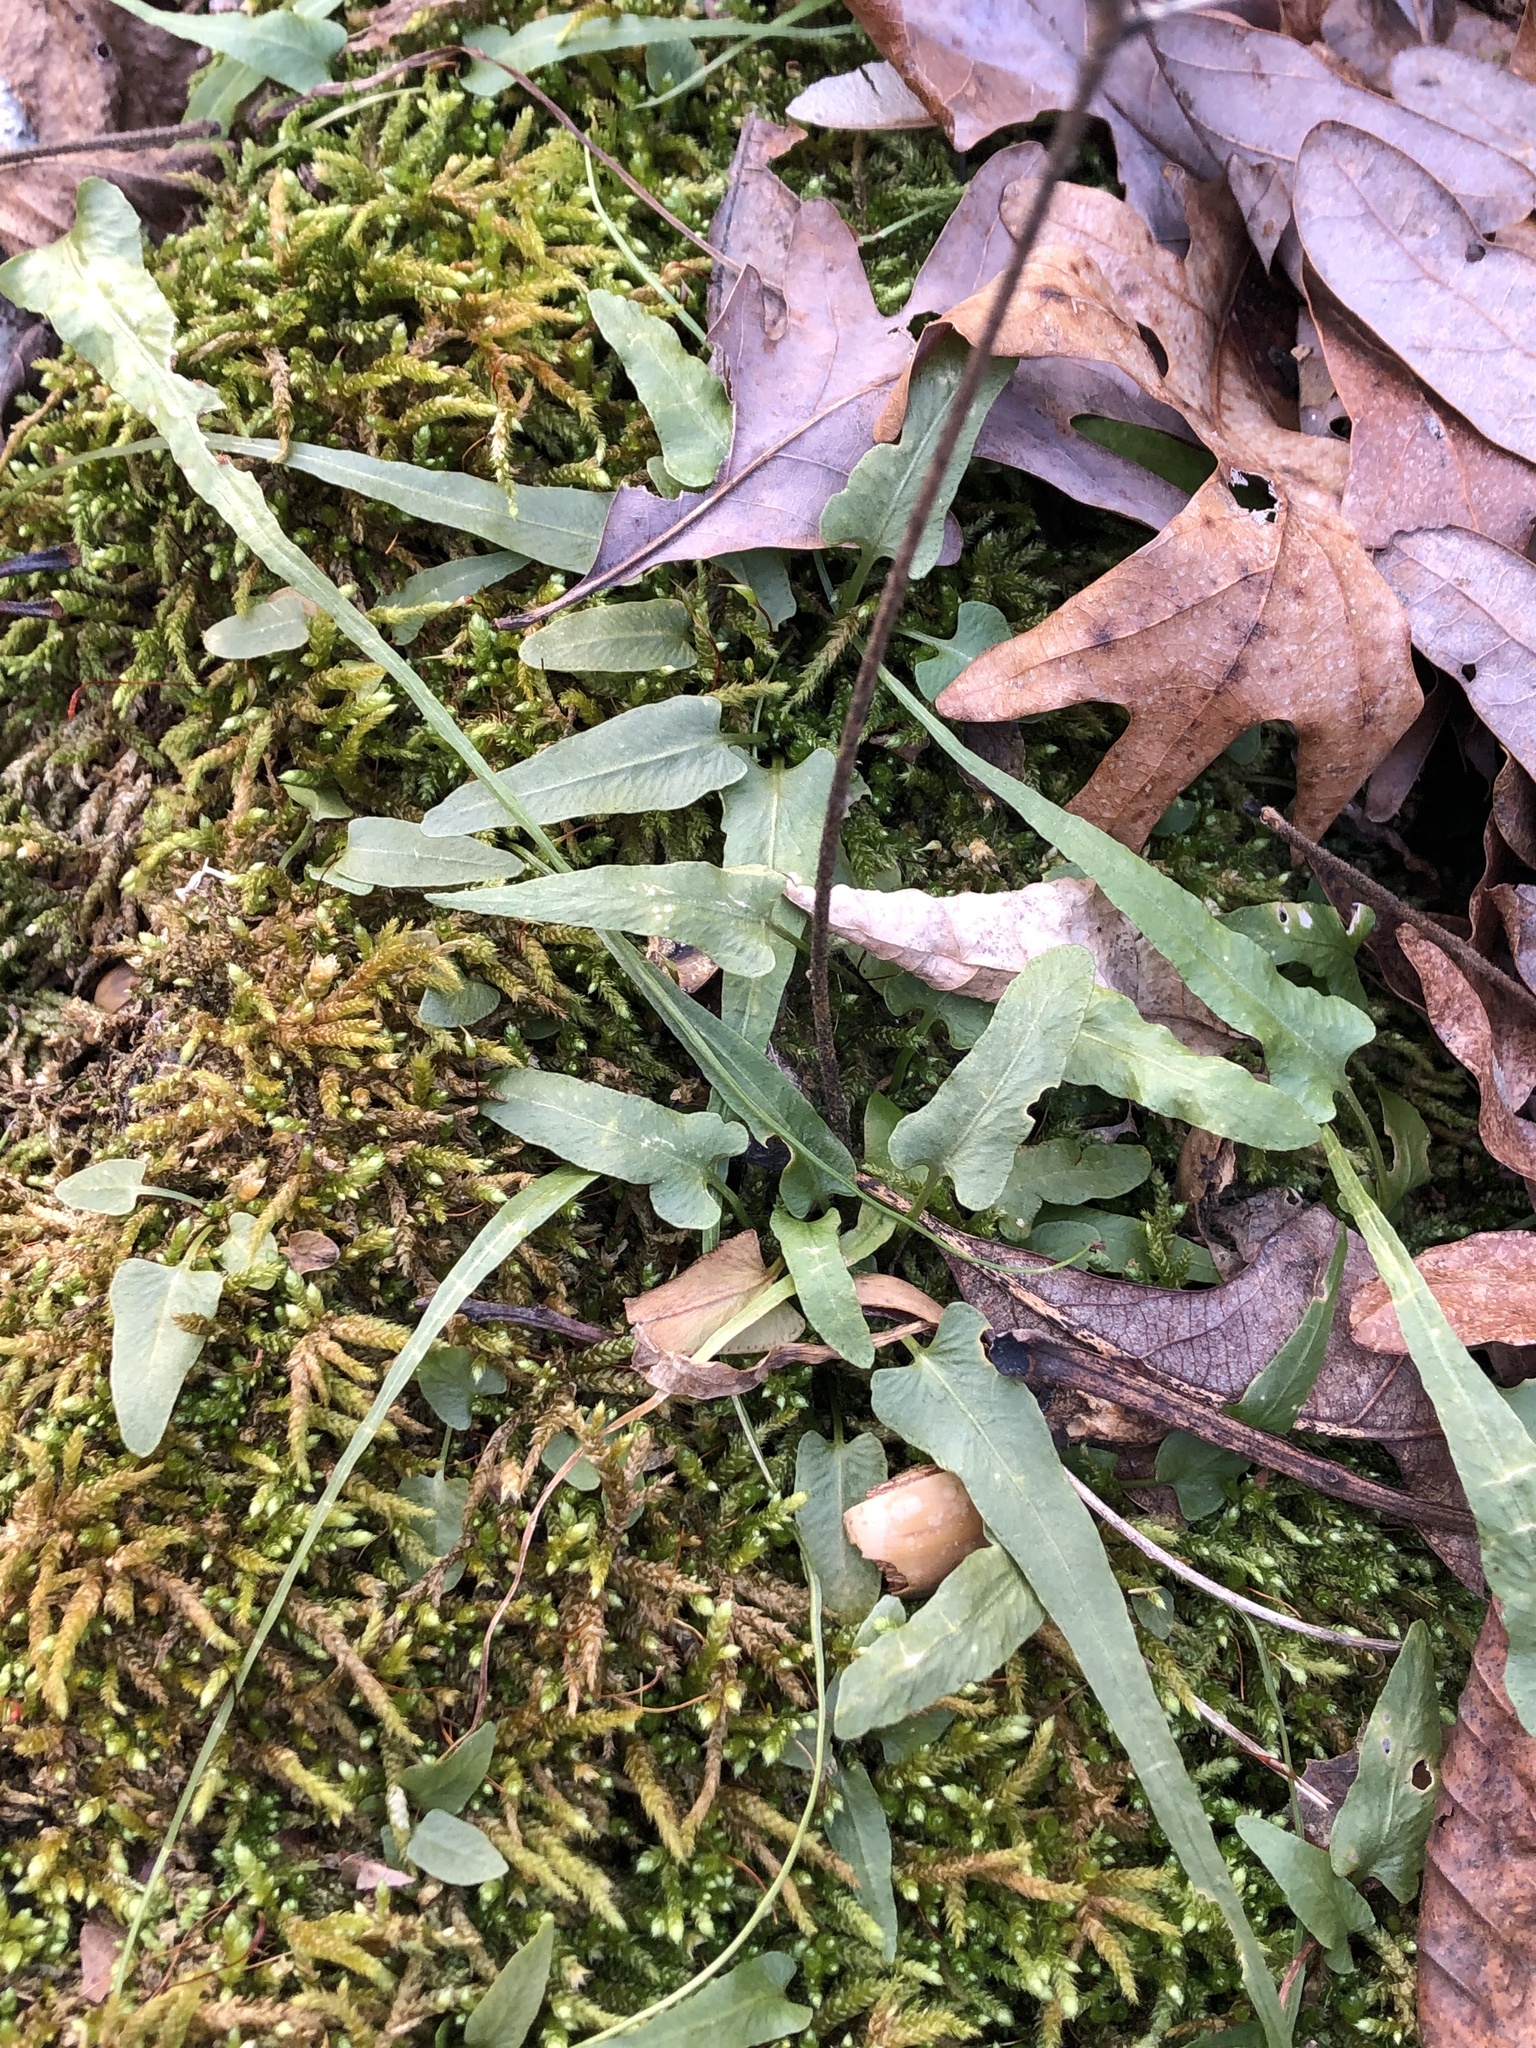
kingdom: Plantae
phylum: Tracheophyta
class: Polypodiopsida
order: Polypodiales
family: Aspleniaceae
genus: Asplenium
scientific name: Asplenium rhizophyllum
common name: Walking fern
